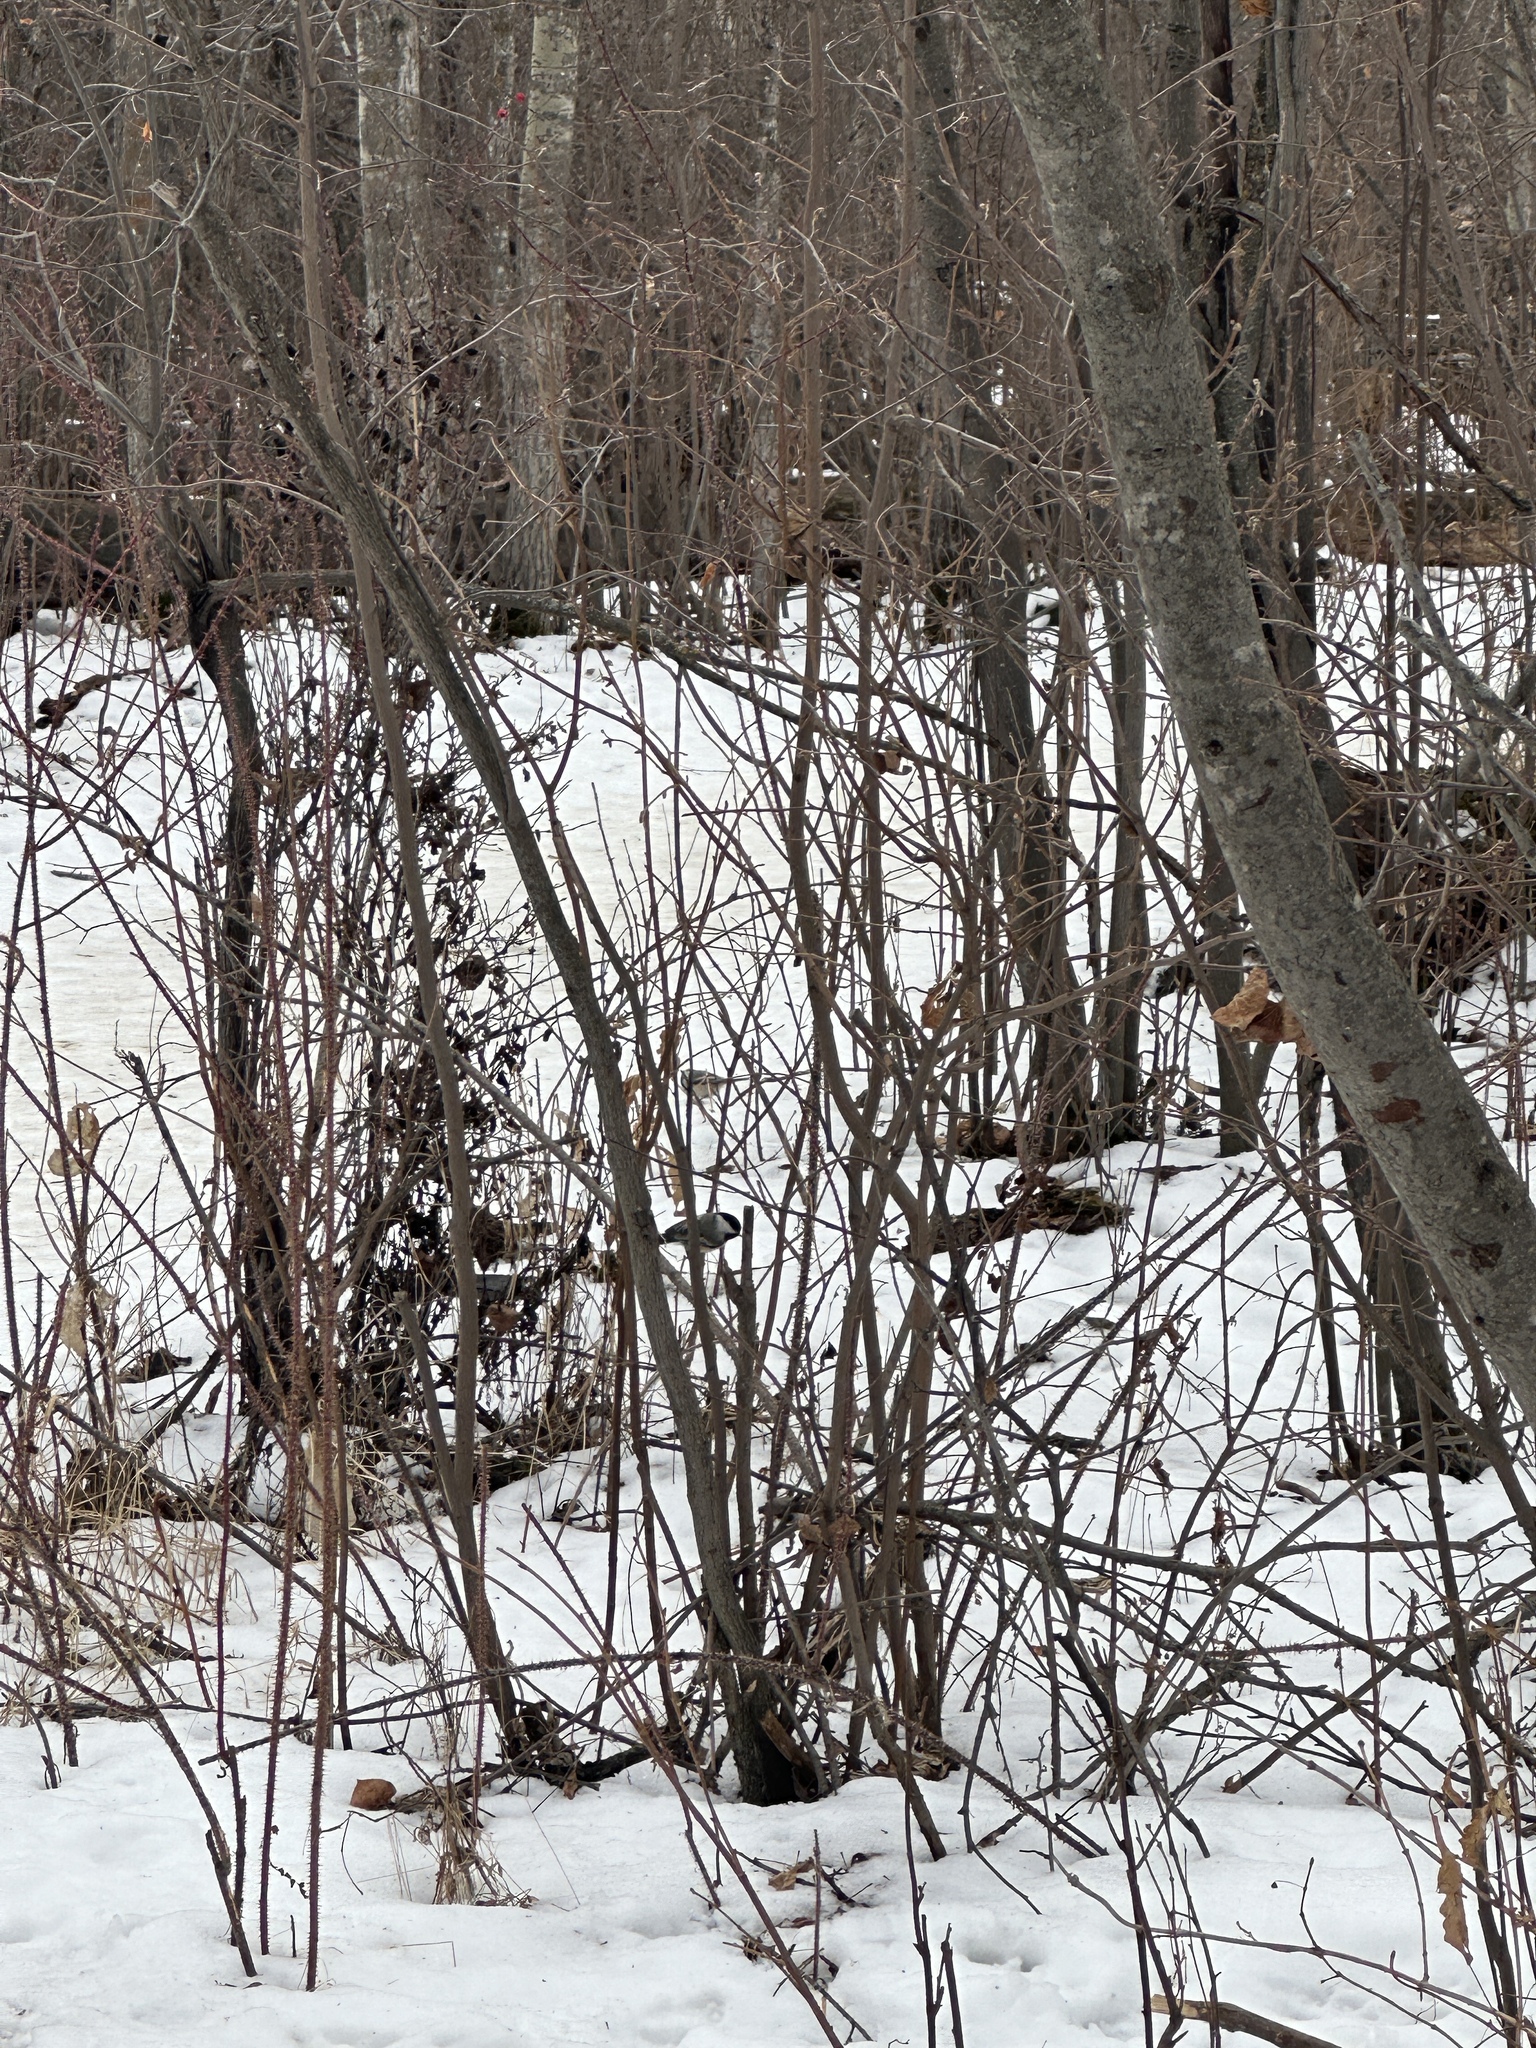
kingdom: Animalia
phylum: Chordata
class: Aves
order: Passeriformes
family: Paridae
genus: Poecile
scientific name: Poecile atricapillus
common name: Black-capped chickadee
